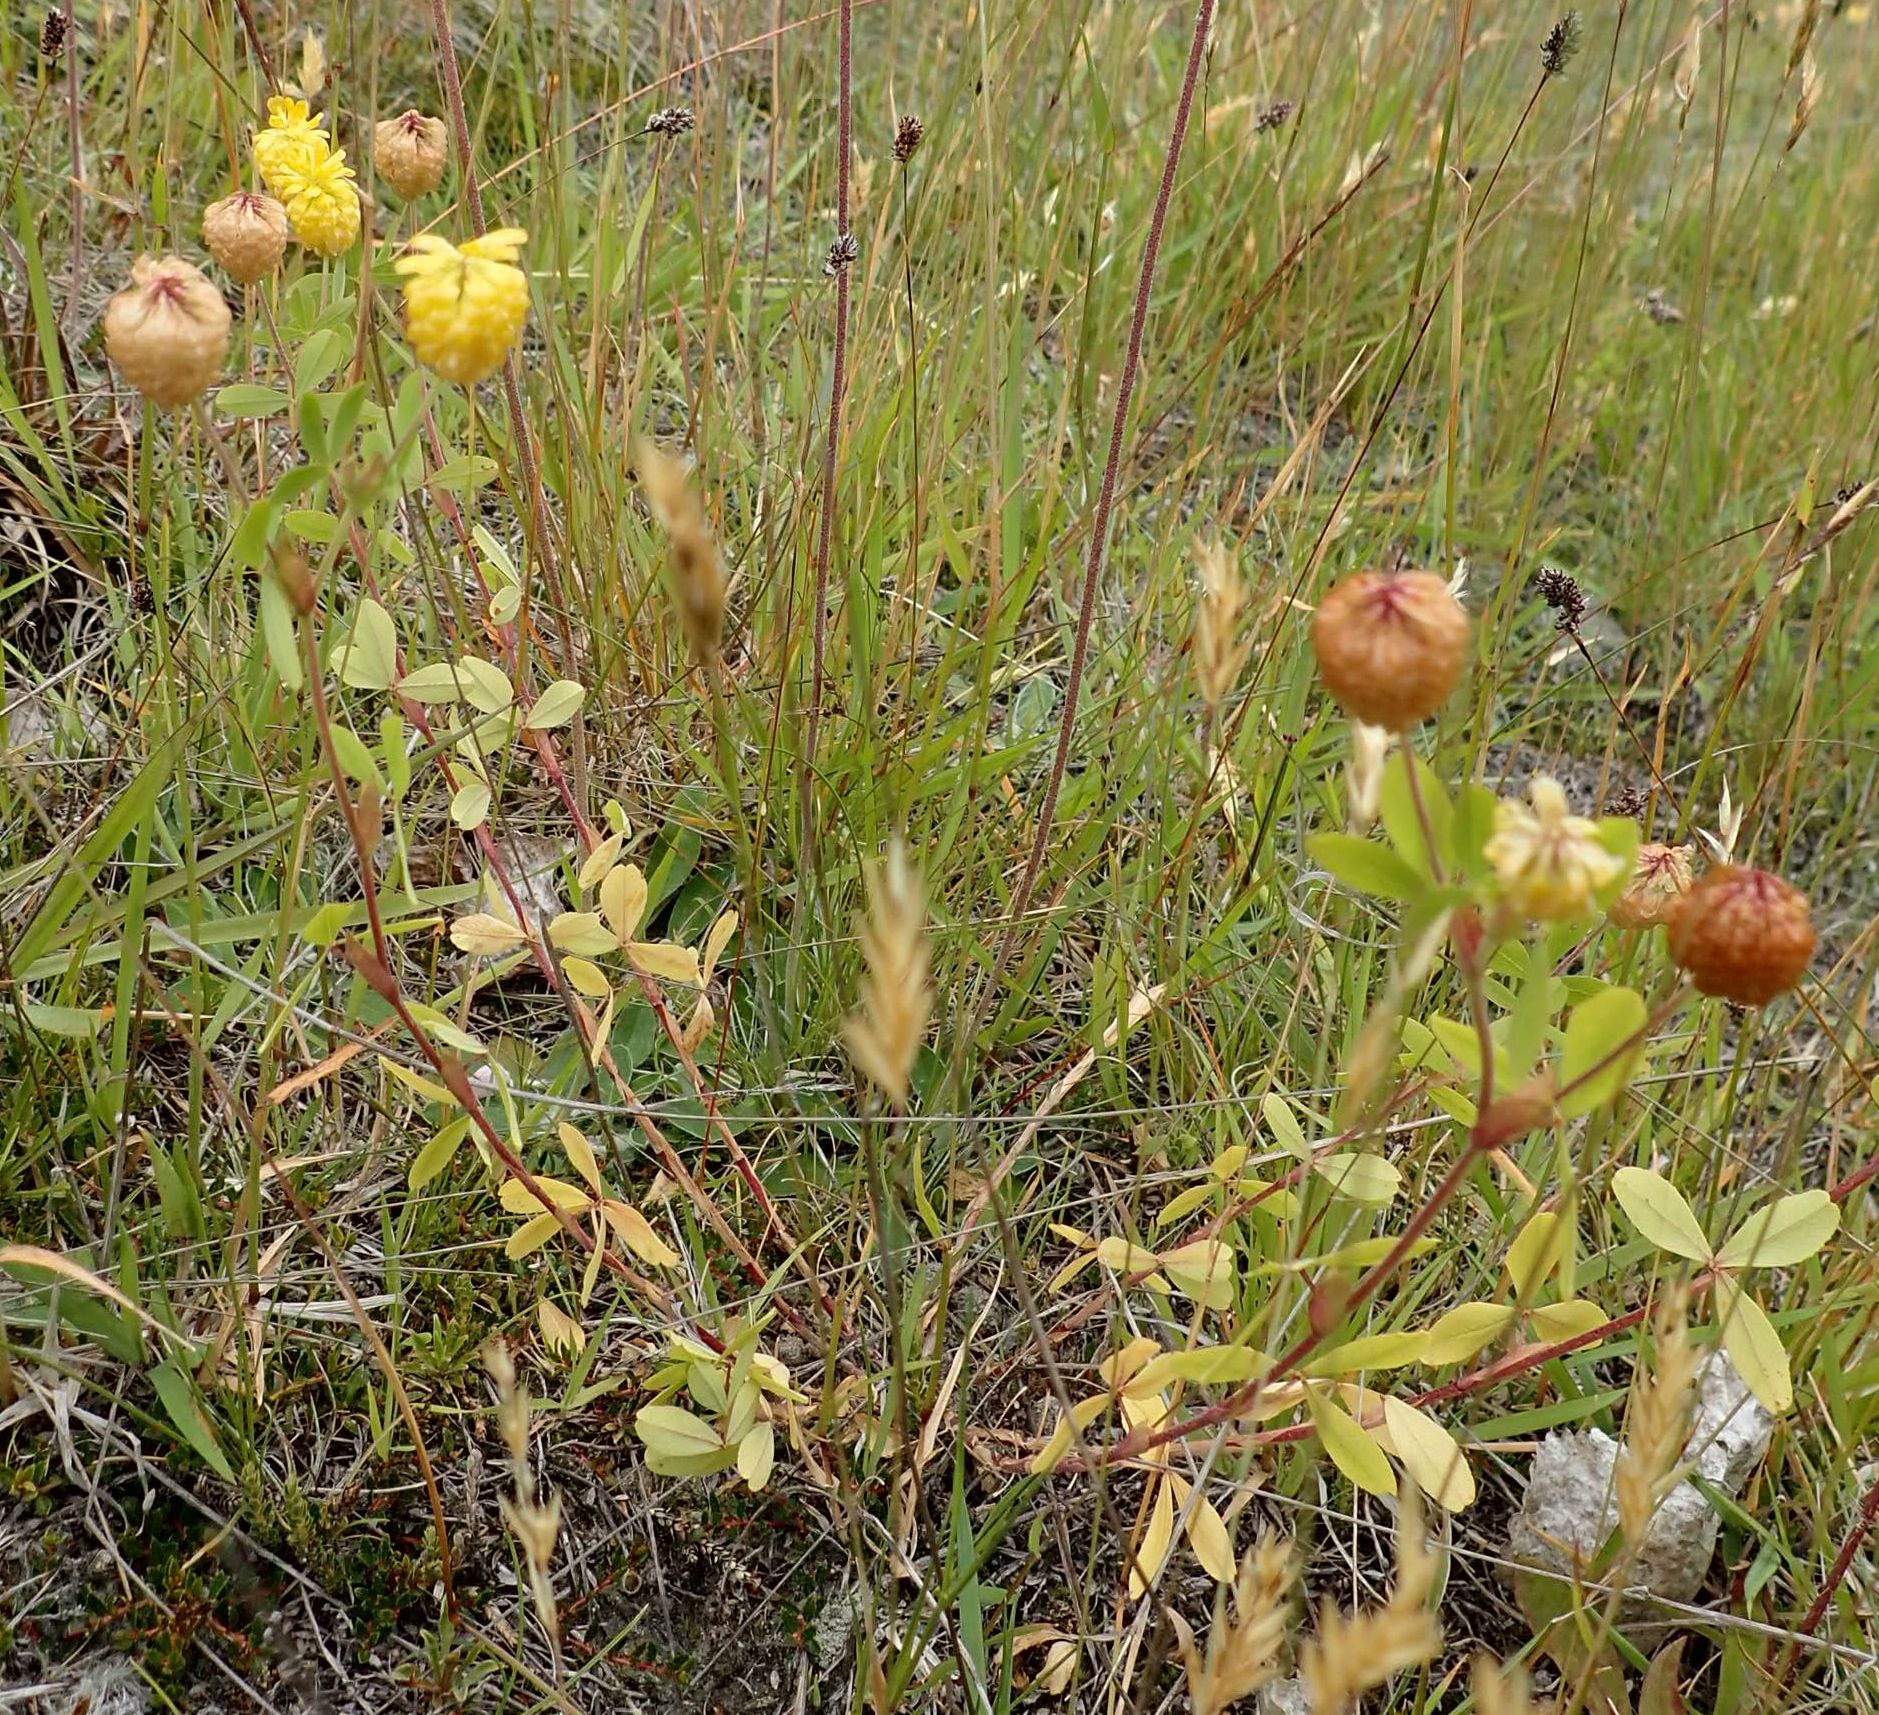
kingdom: Plantae
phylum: Tracheophyta
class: Magnoliopsida
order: Fabales
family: Fabaceae
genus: Trifolium
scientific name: Trifolium aureum
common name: Golden clover
